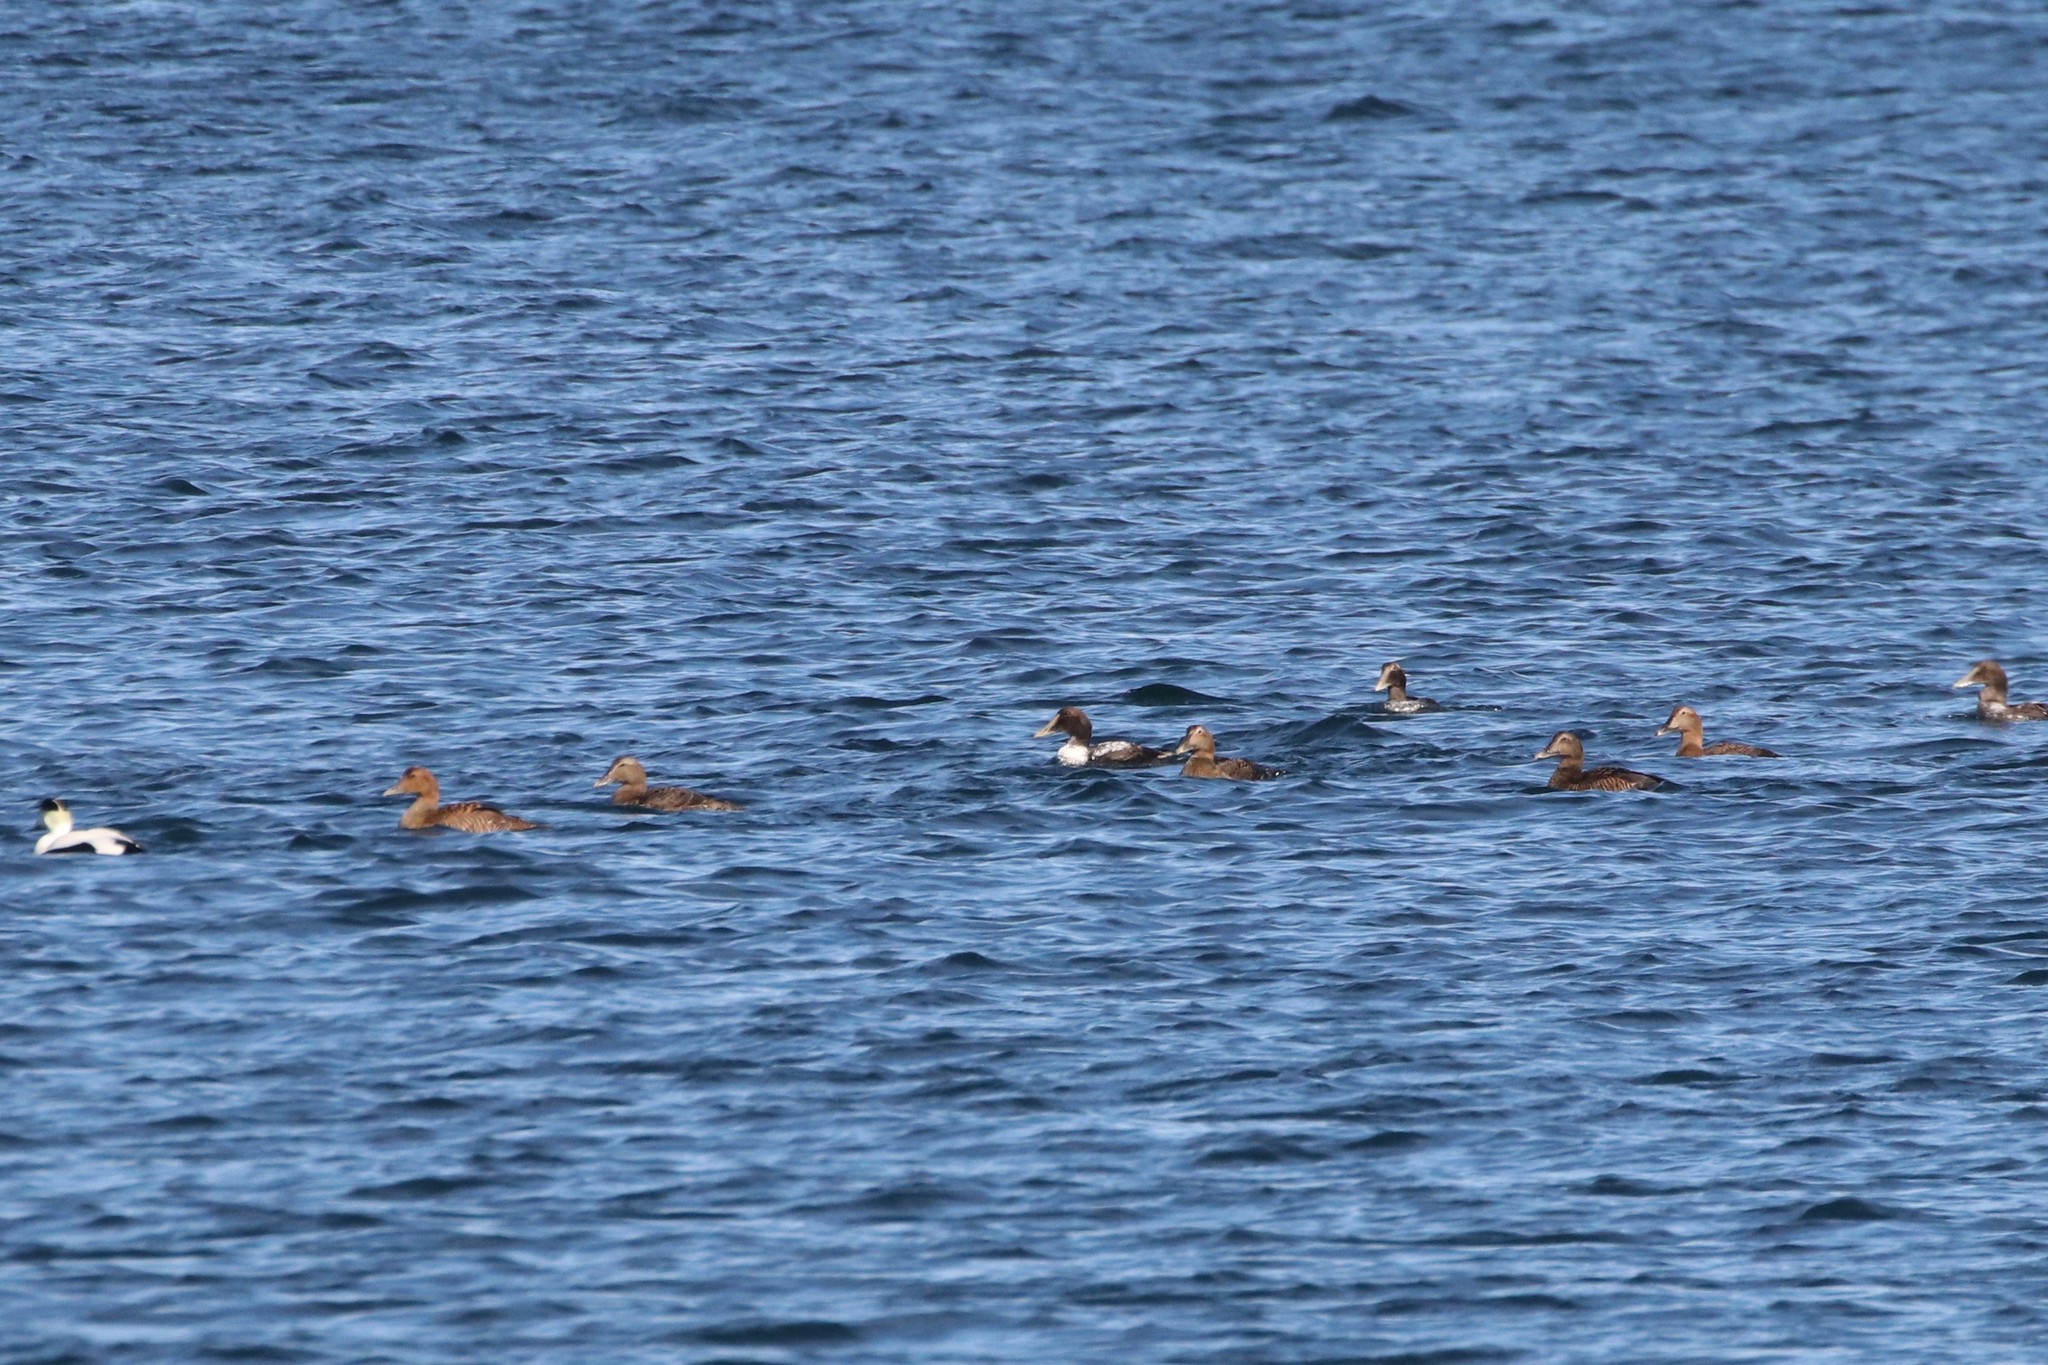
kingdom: Animalia
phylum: Chordata
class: Aves
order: Anseriformes
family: Anatidae
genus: Somateria
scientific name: Somateria mollissima
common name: Common eider
